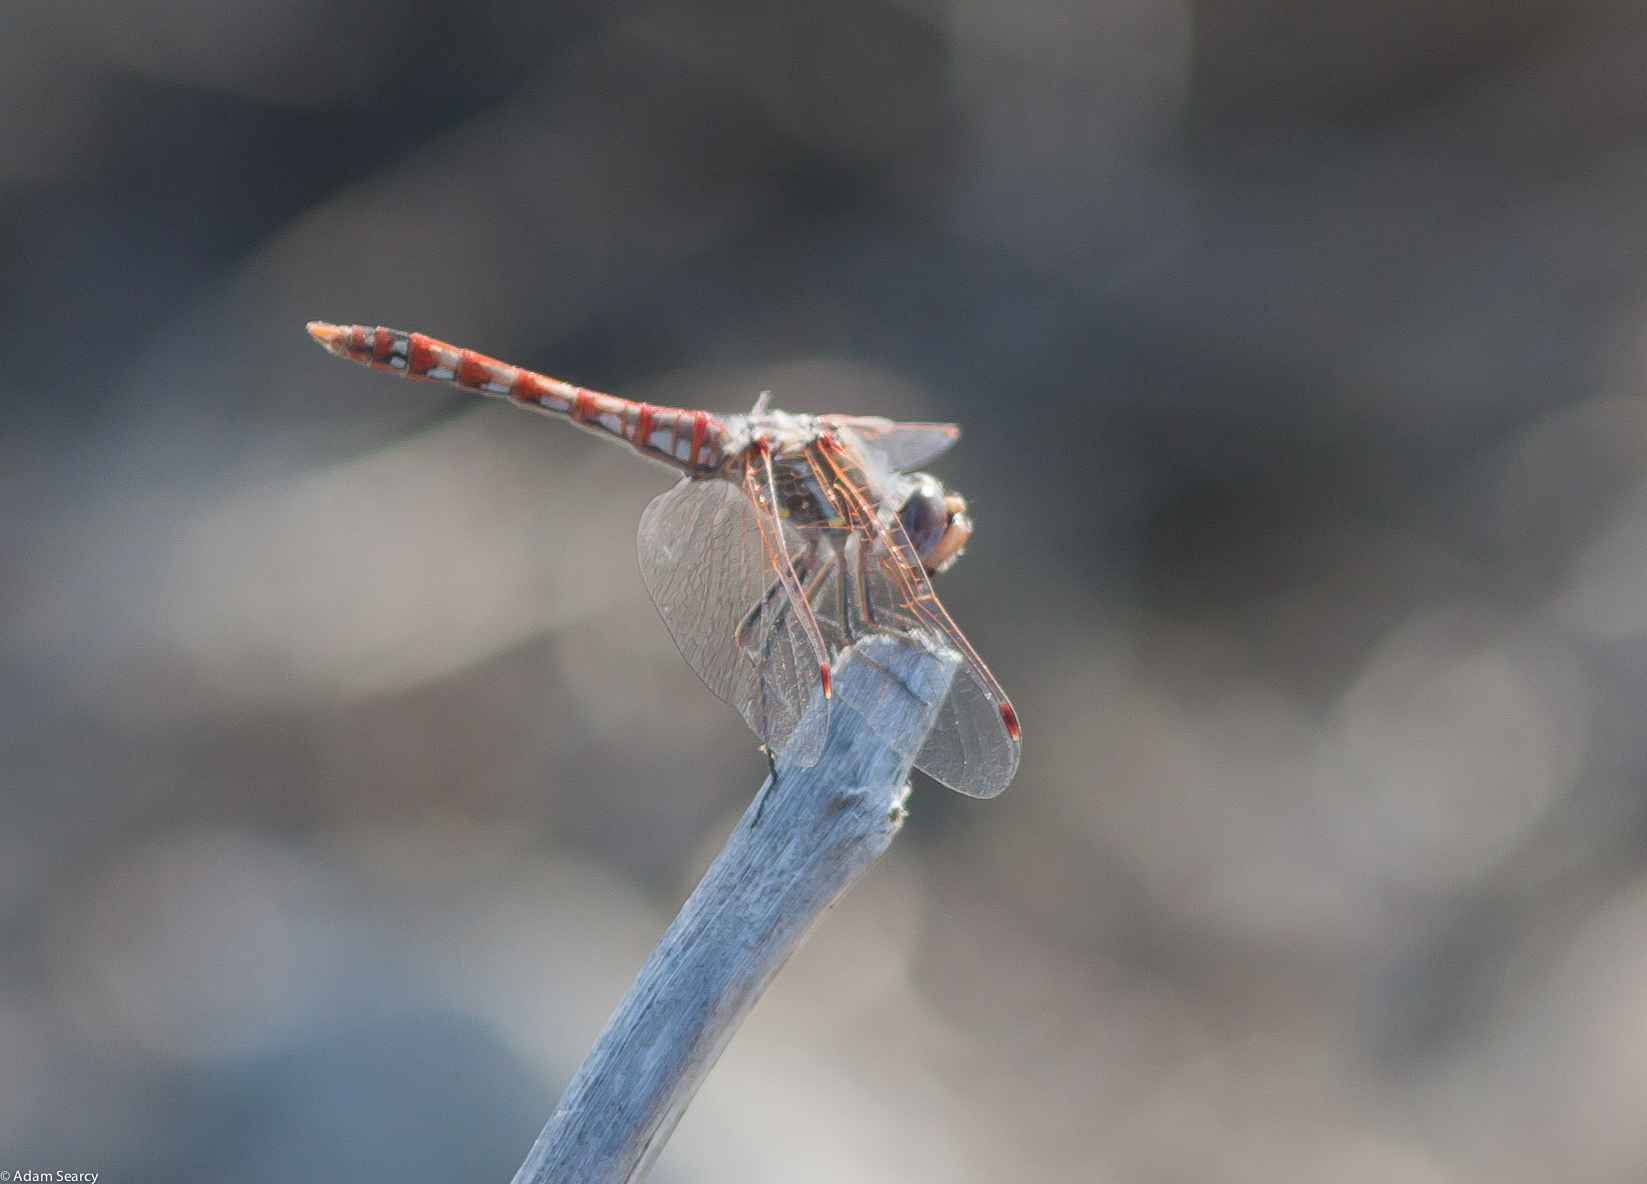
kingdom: Animalia
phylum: Arthropoda
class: Insecta
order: Odonata
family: Libellulidae
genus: Sympetrum
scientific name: Sympetrum corruptum
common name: Variegated meadowhawk
